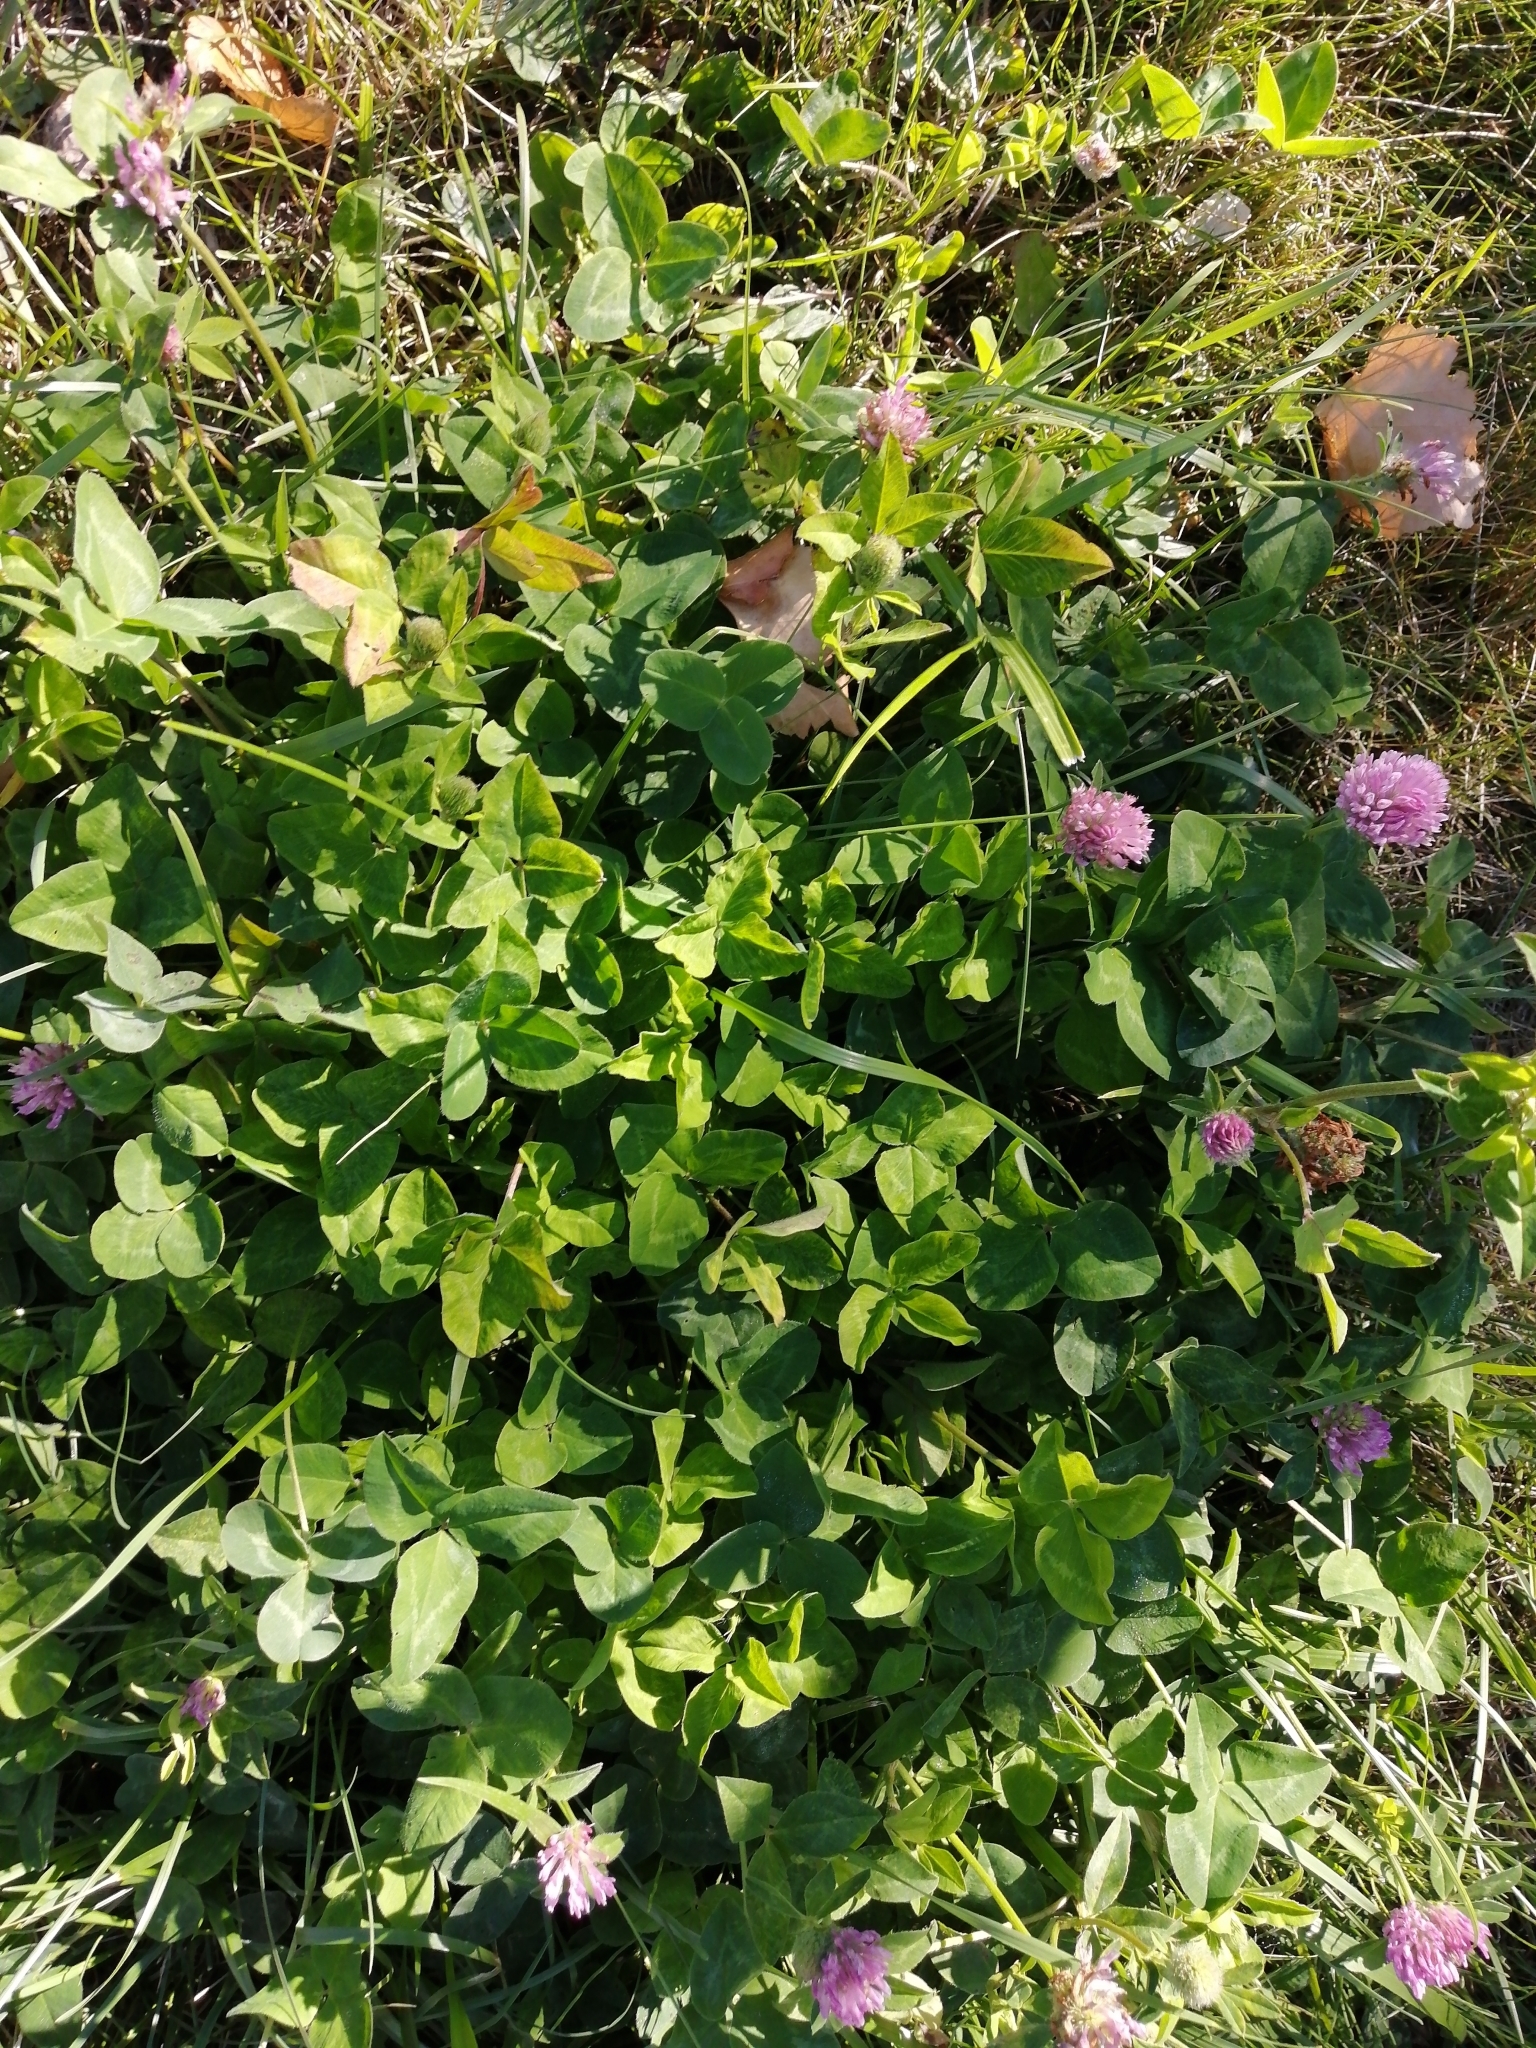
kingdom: Plantae
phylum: Tracheophyta
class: Magnoliopsida
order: Fabales
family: Fabaceae
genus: Trifolium
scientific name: Trifolium pratense
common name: Red clover
